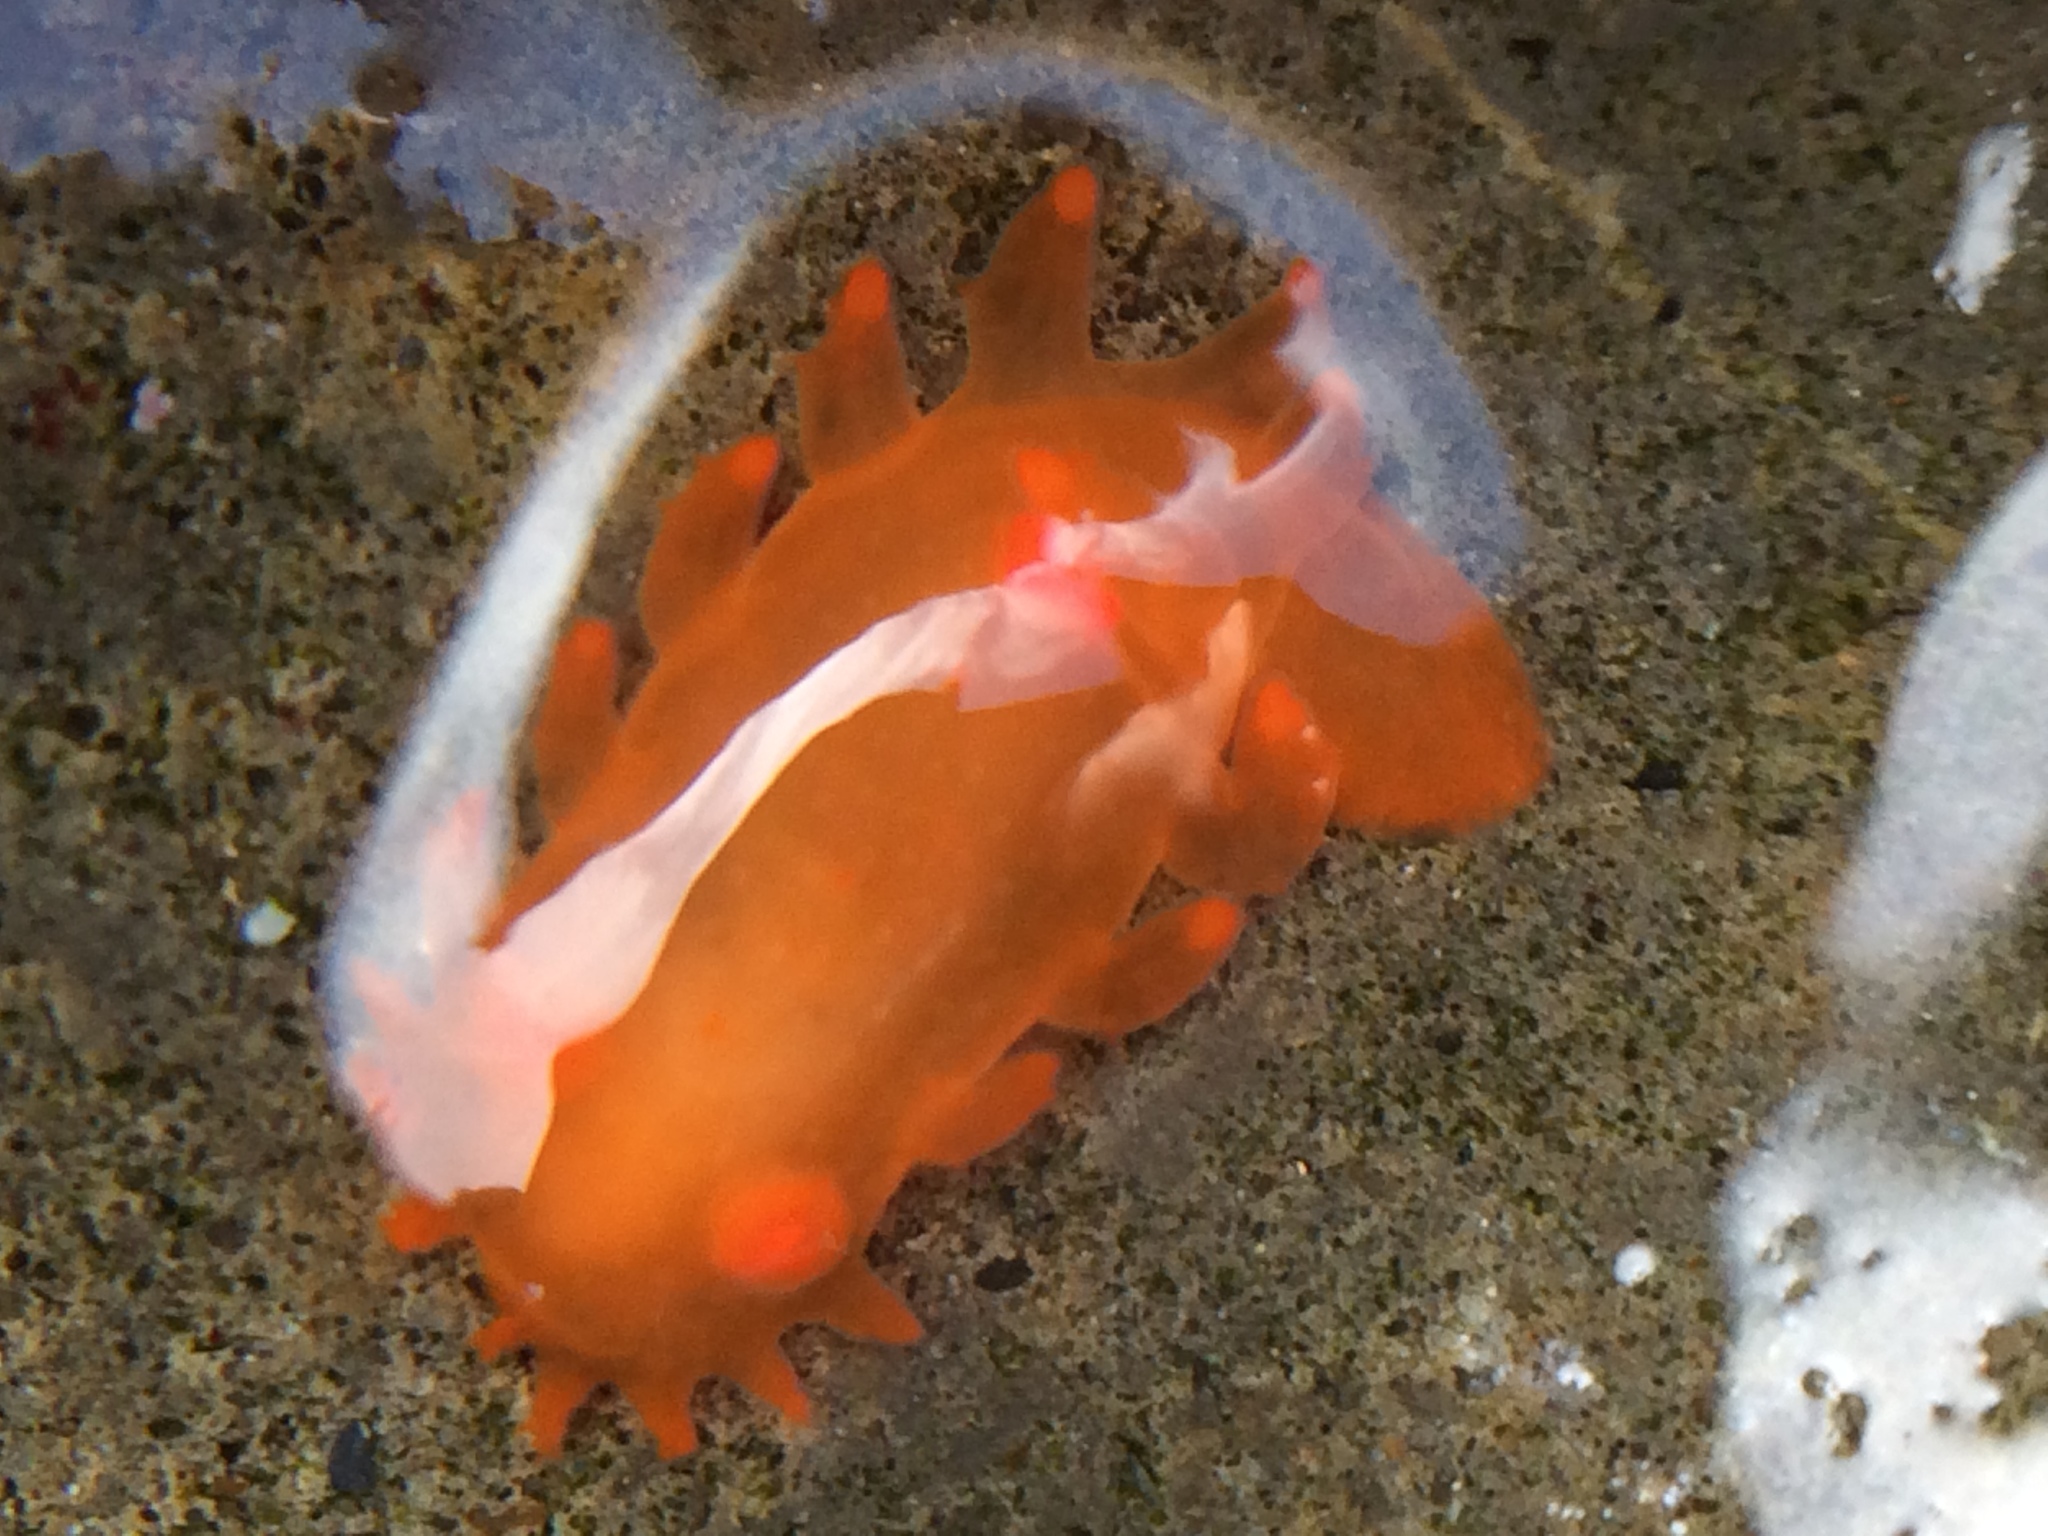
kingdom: Animalia
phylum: Mollusca
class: Gastropoda
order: Nudibranchia
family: Polyceridae
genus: Triopha
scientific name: Triopha maculata
